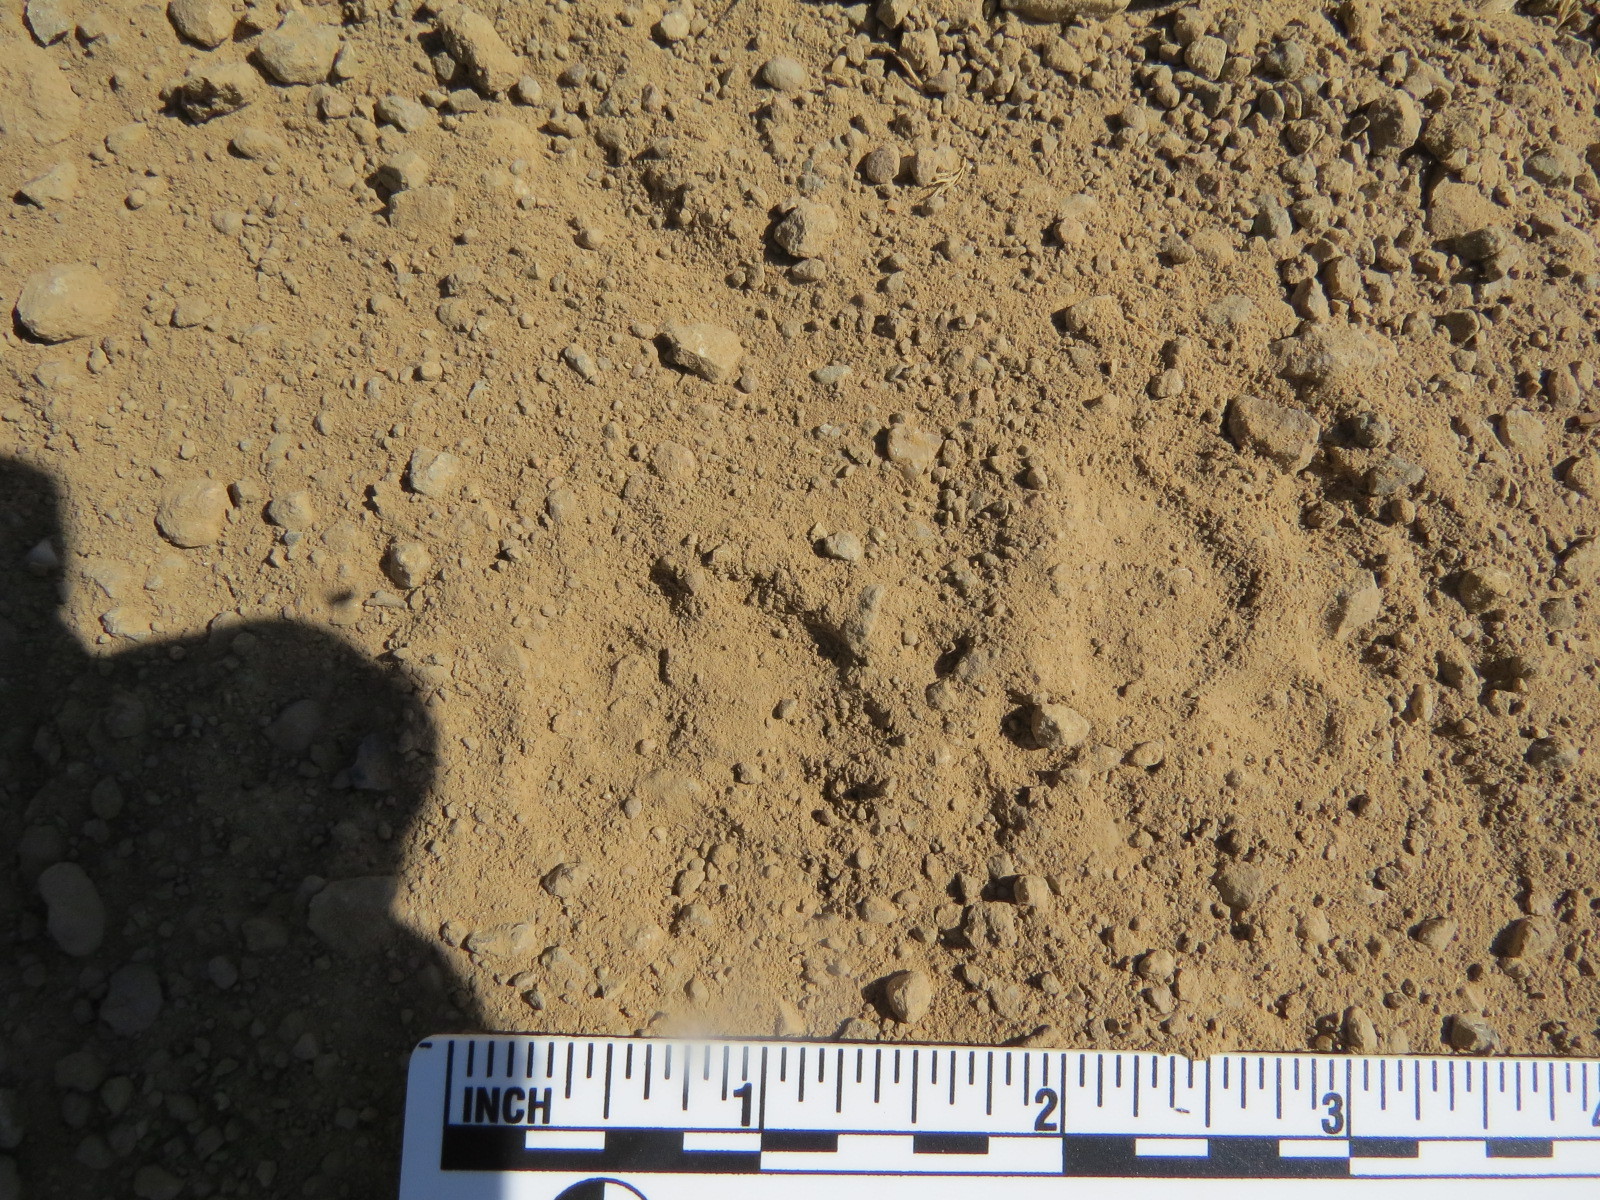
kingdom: Animalia
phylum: Chordata
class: Mammalia
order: Carnivora
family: Felidae
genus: Lynx
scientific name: Lynx rufus
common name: Bobcat
